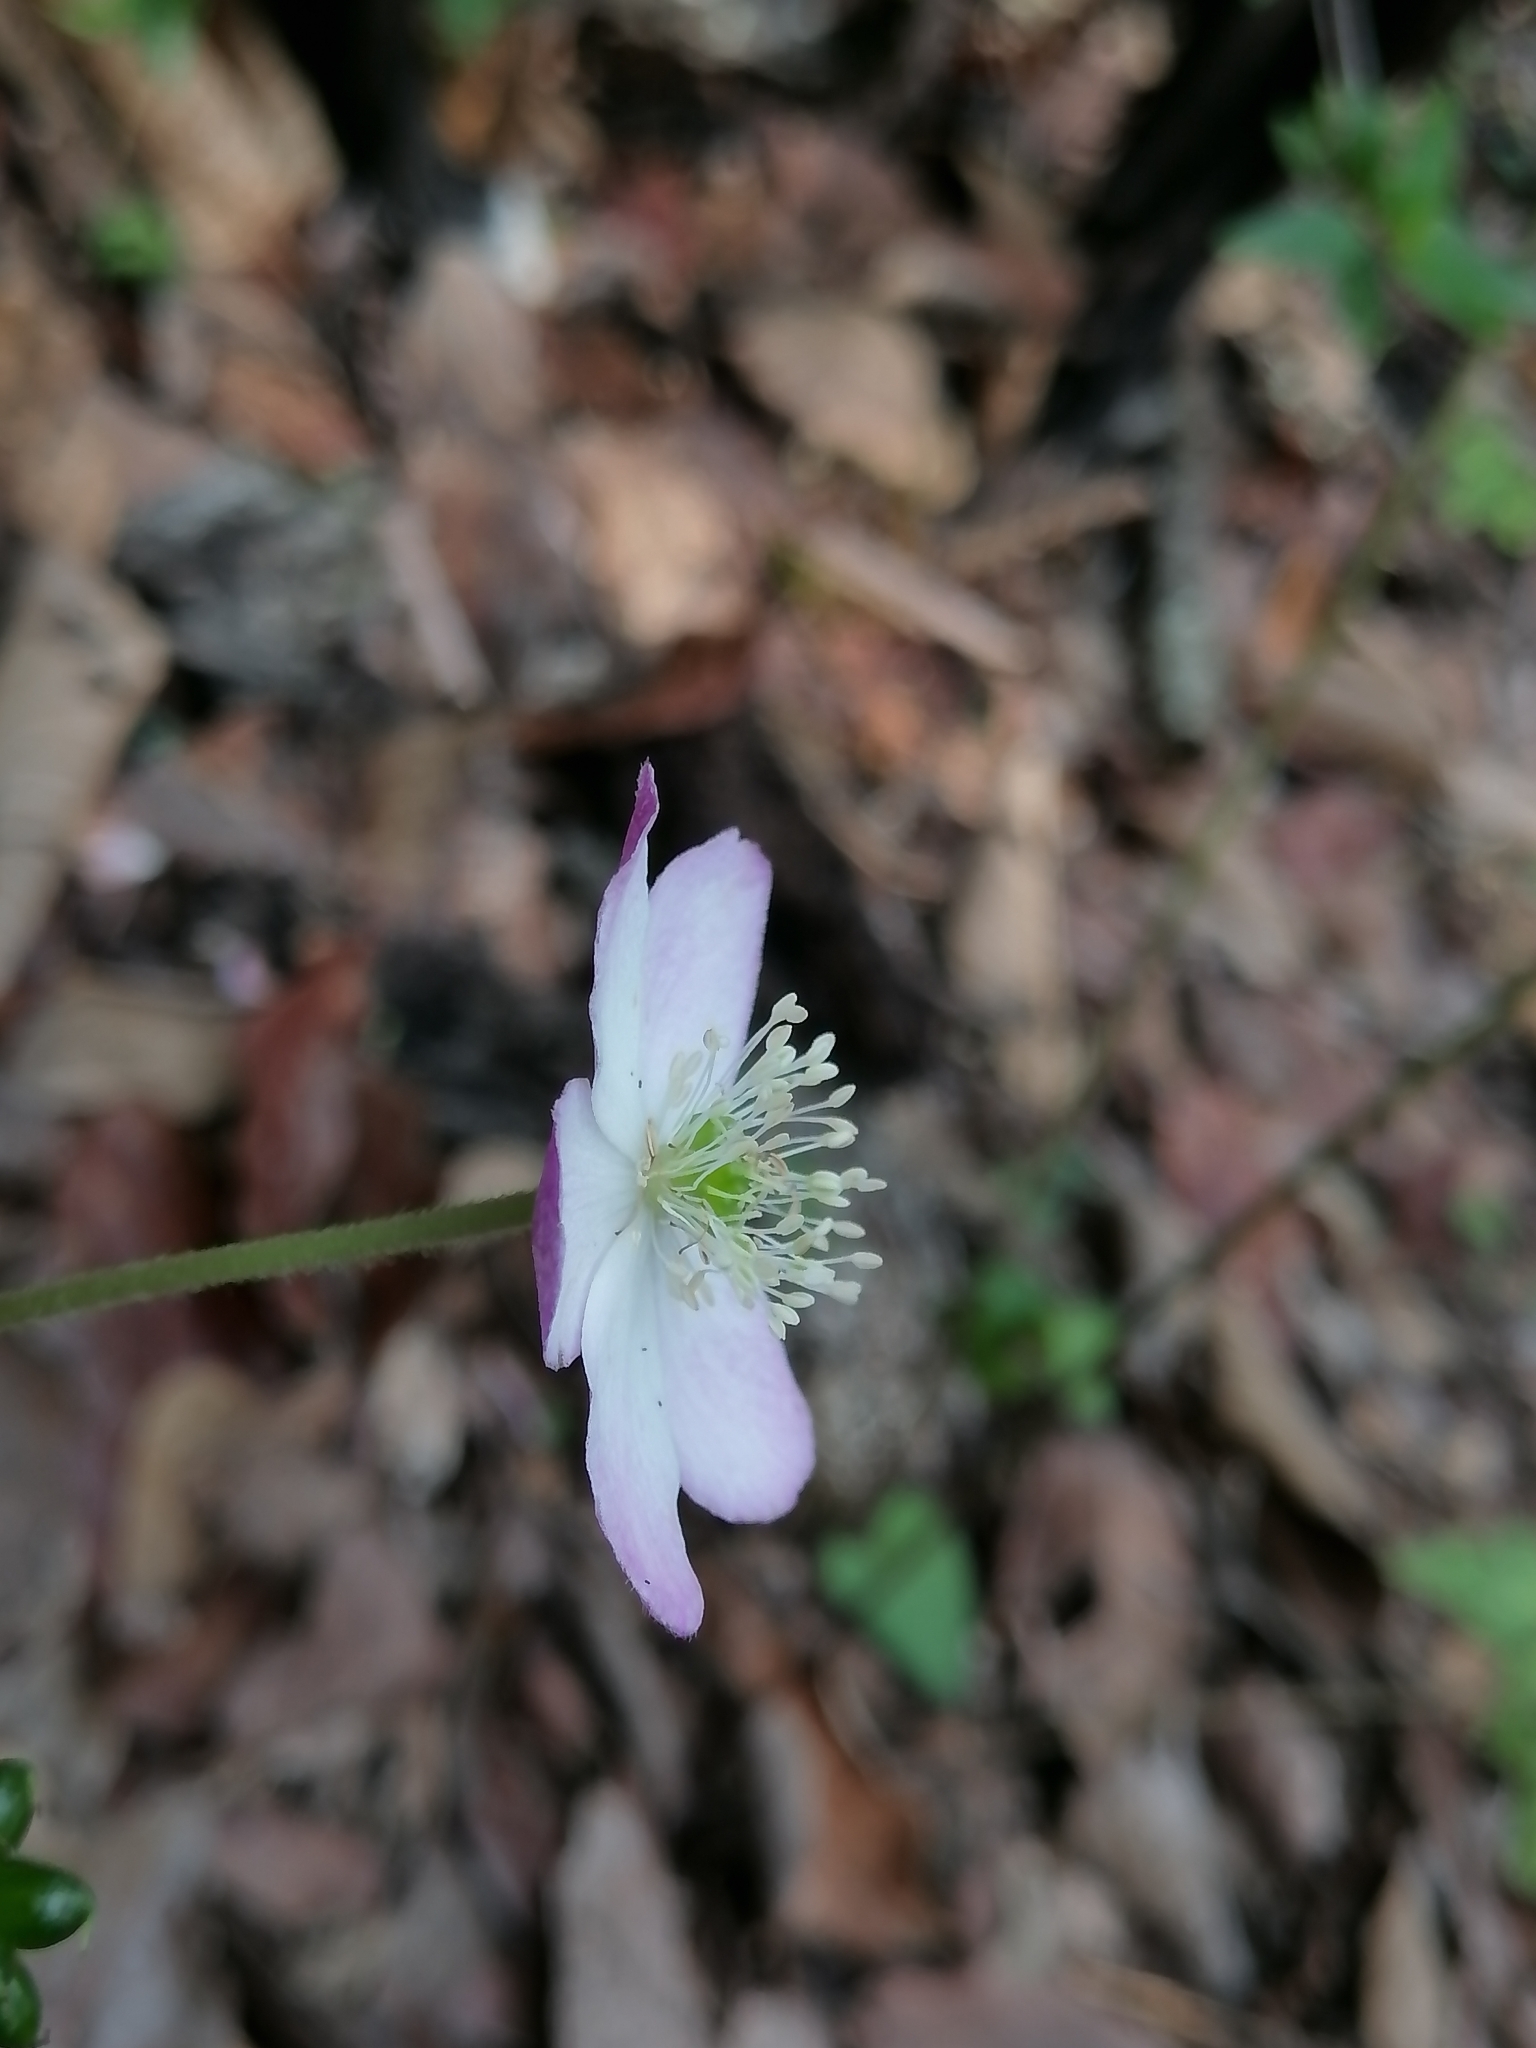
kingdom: Plantae
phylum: Tracheophyta
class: Magnoliopsida
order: Ranunculales
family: Ranunculaceae
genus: Knowltonia
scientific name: Knowltonia mexicana
